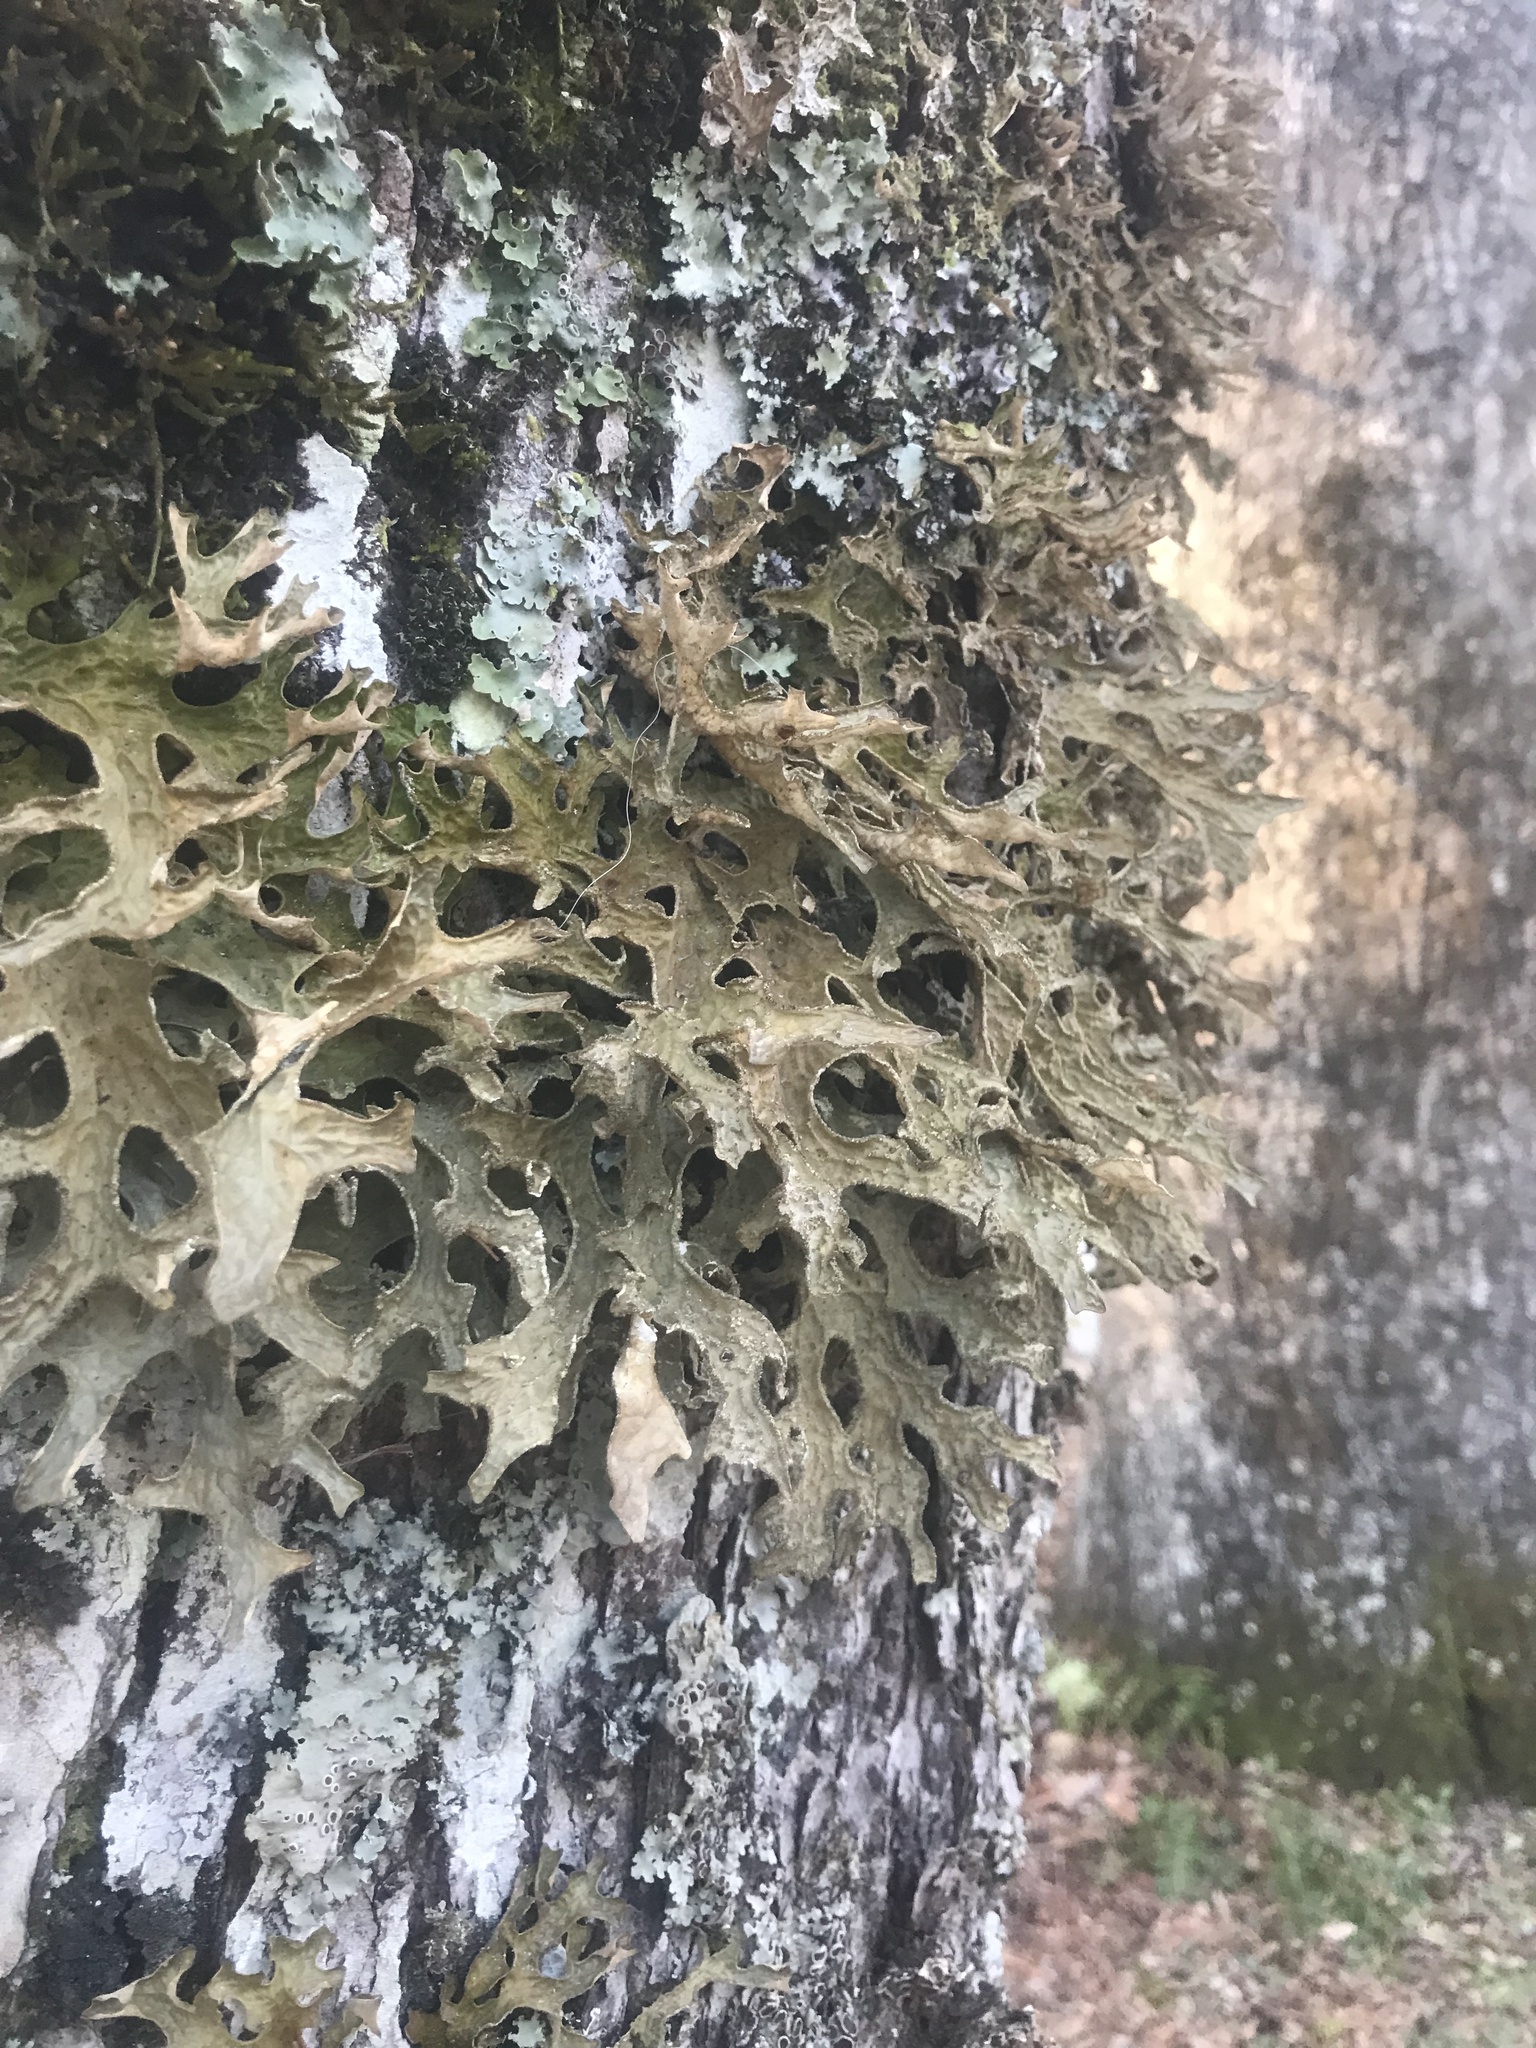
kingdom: Fungi
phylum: Ascomycota
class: Lecanoromycetes
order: Peltigerales
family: Lobariaceae
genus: Lobaria
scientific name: Lobaria pulmonaria
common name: Lungwort
